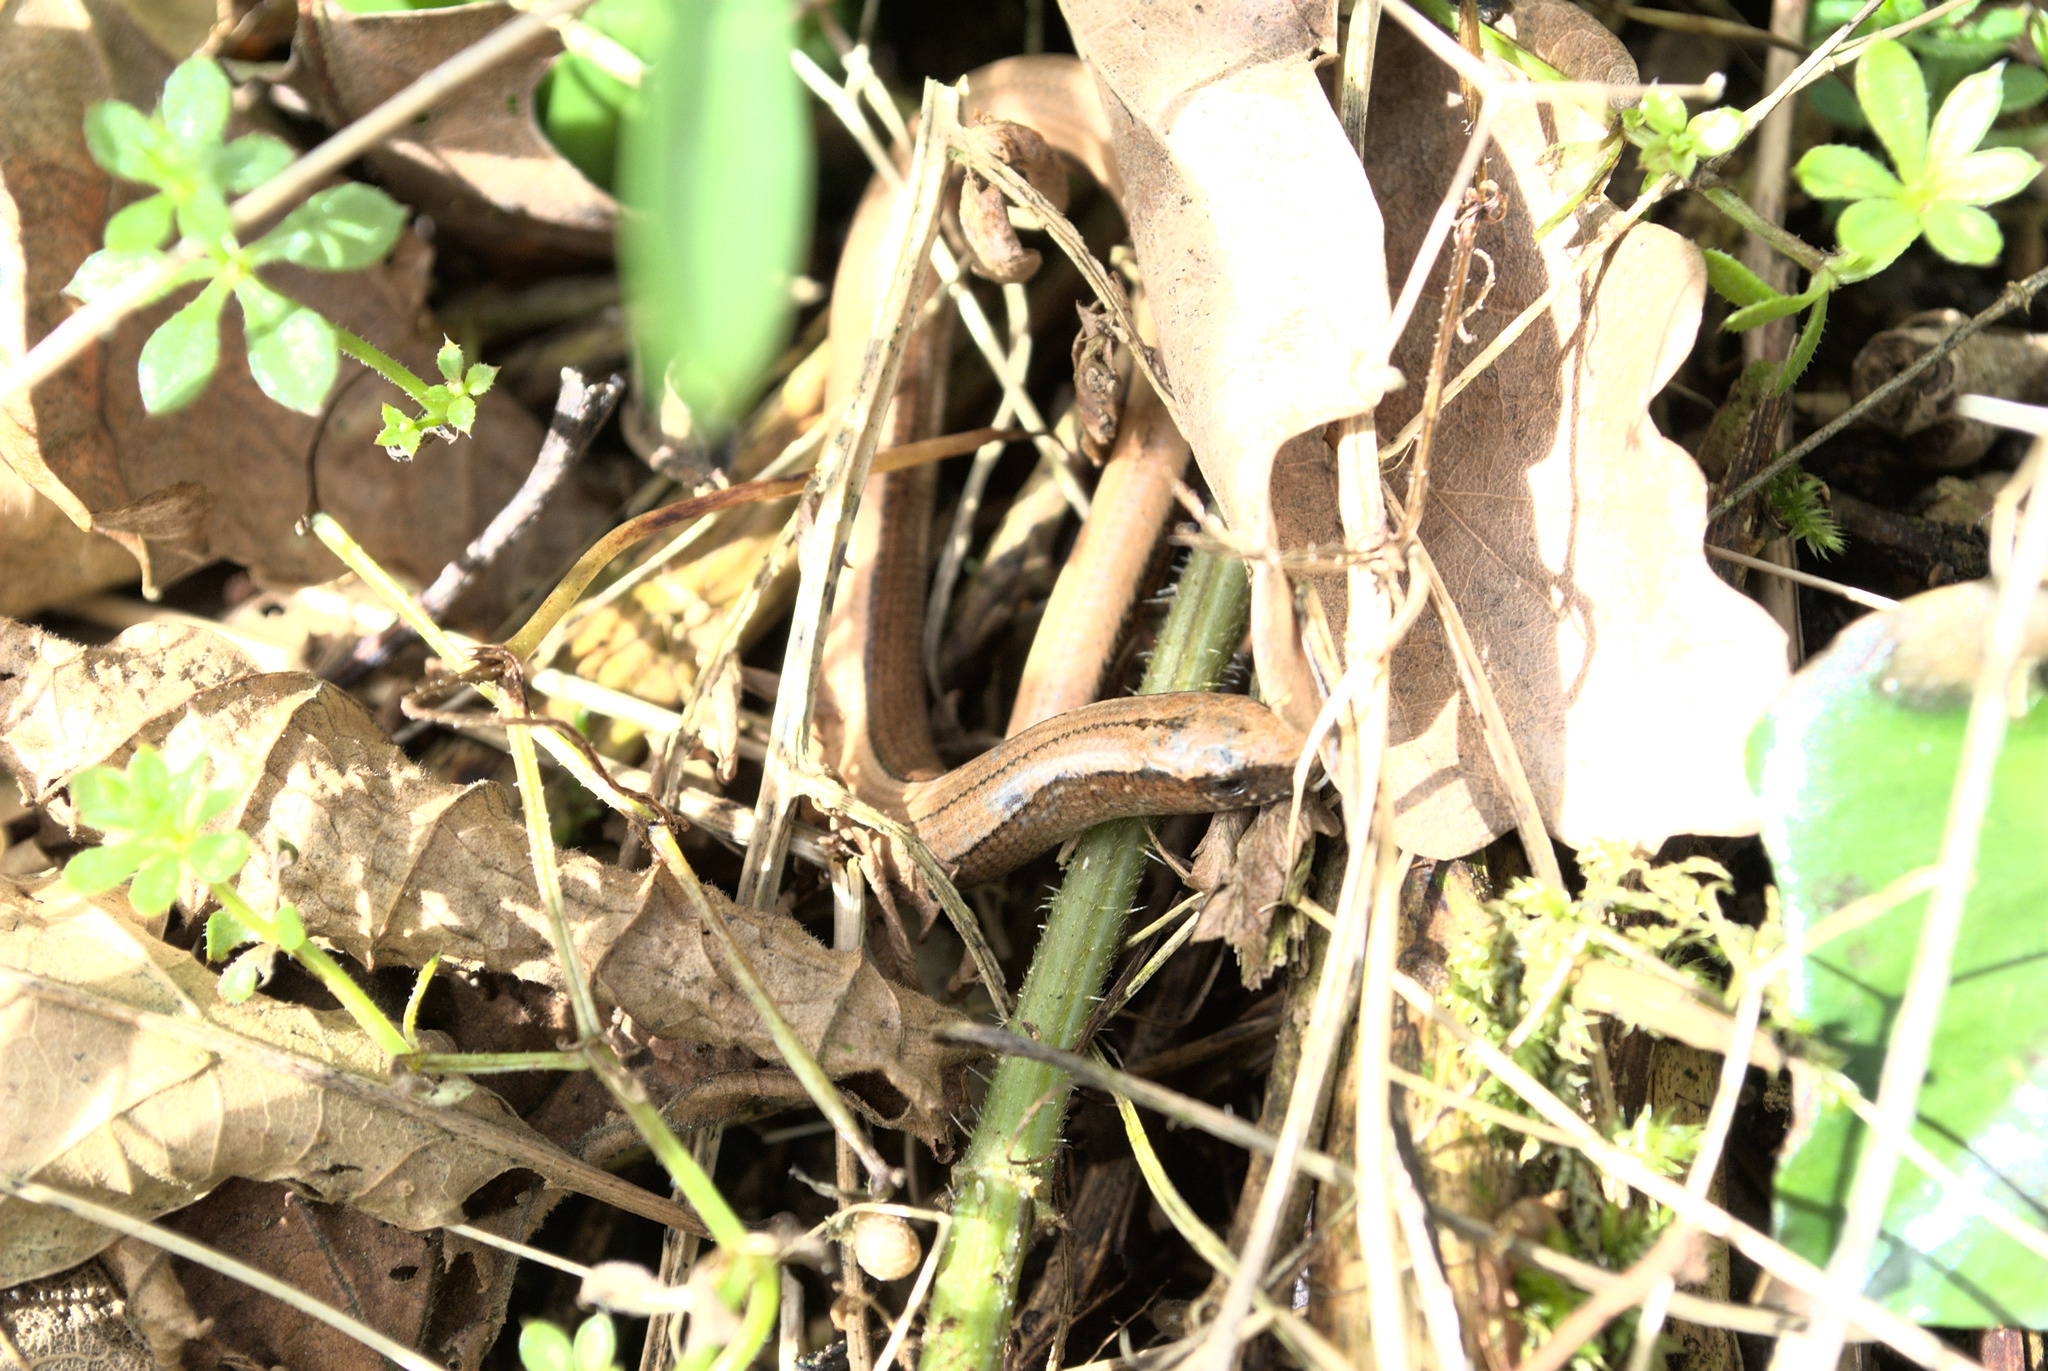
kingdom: Animalia
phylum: Chordata
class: Squamata
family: Anguidae
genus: Anguis
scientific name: Anguis fragilis
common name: Slow worm
